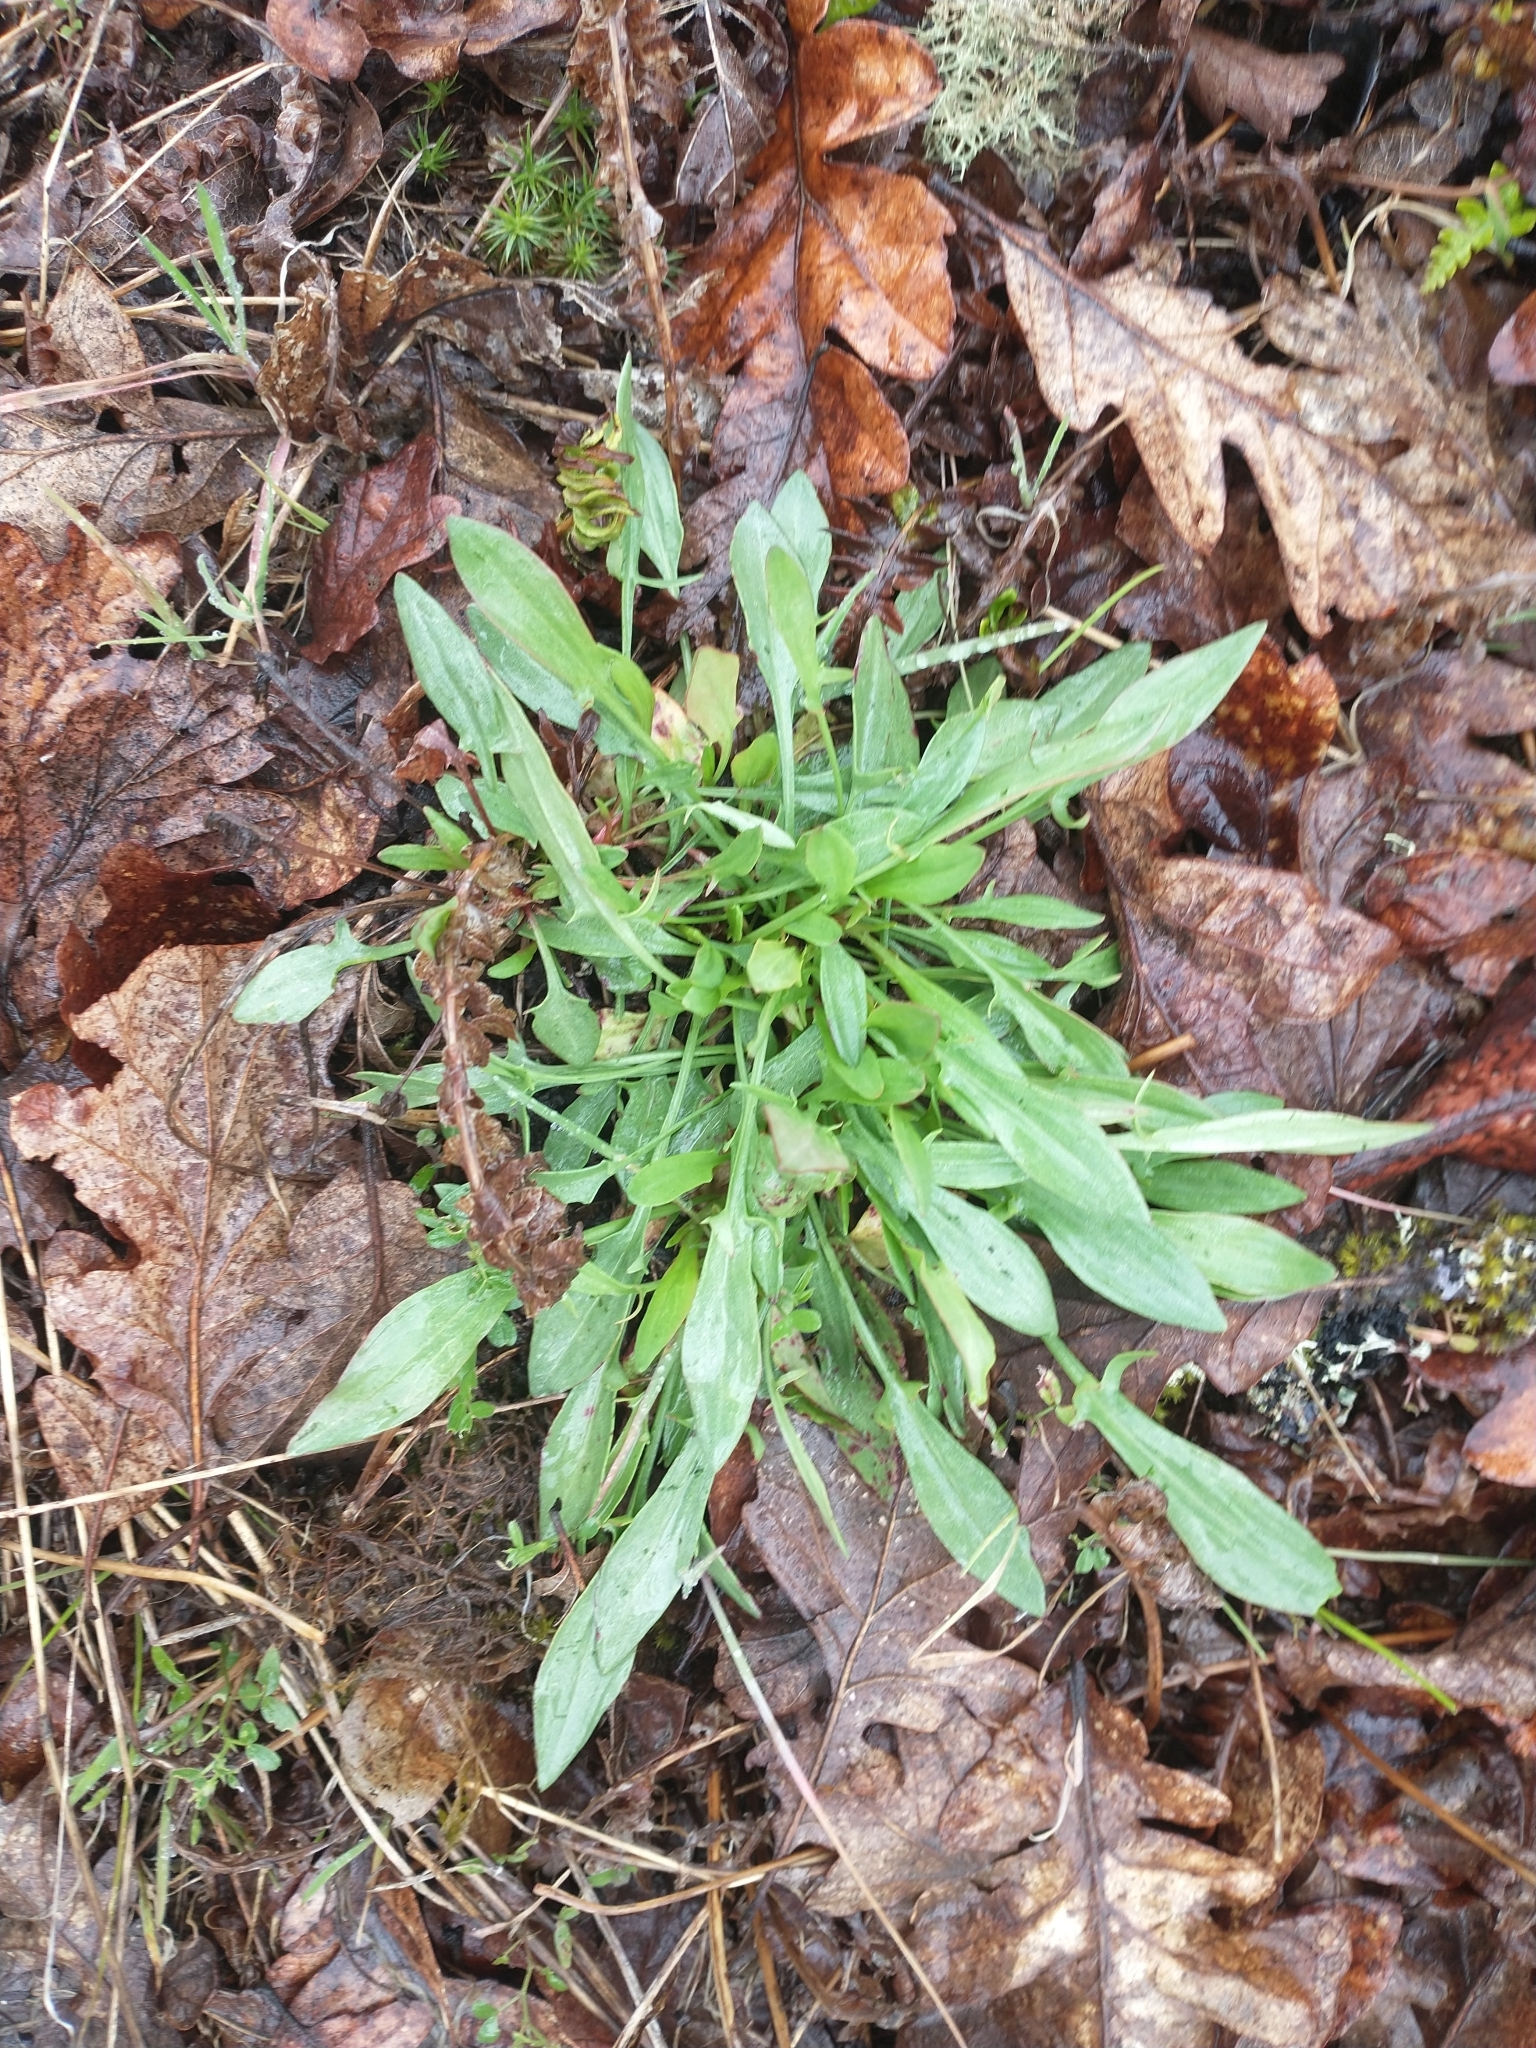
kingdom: Plantae
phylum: Tracheophyta
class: Magnoliopsida
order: Caryophyllales
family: Polygonaceae
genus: Rumex
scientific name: Rumex acetosella
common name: Common sheep sorrel
